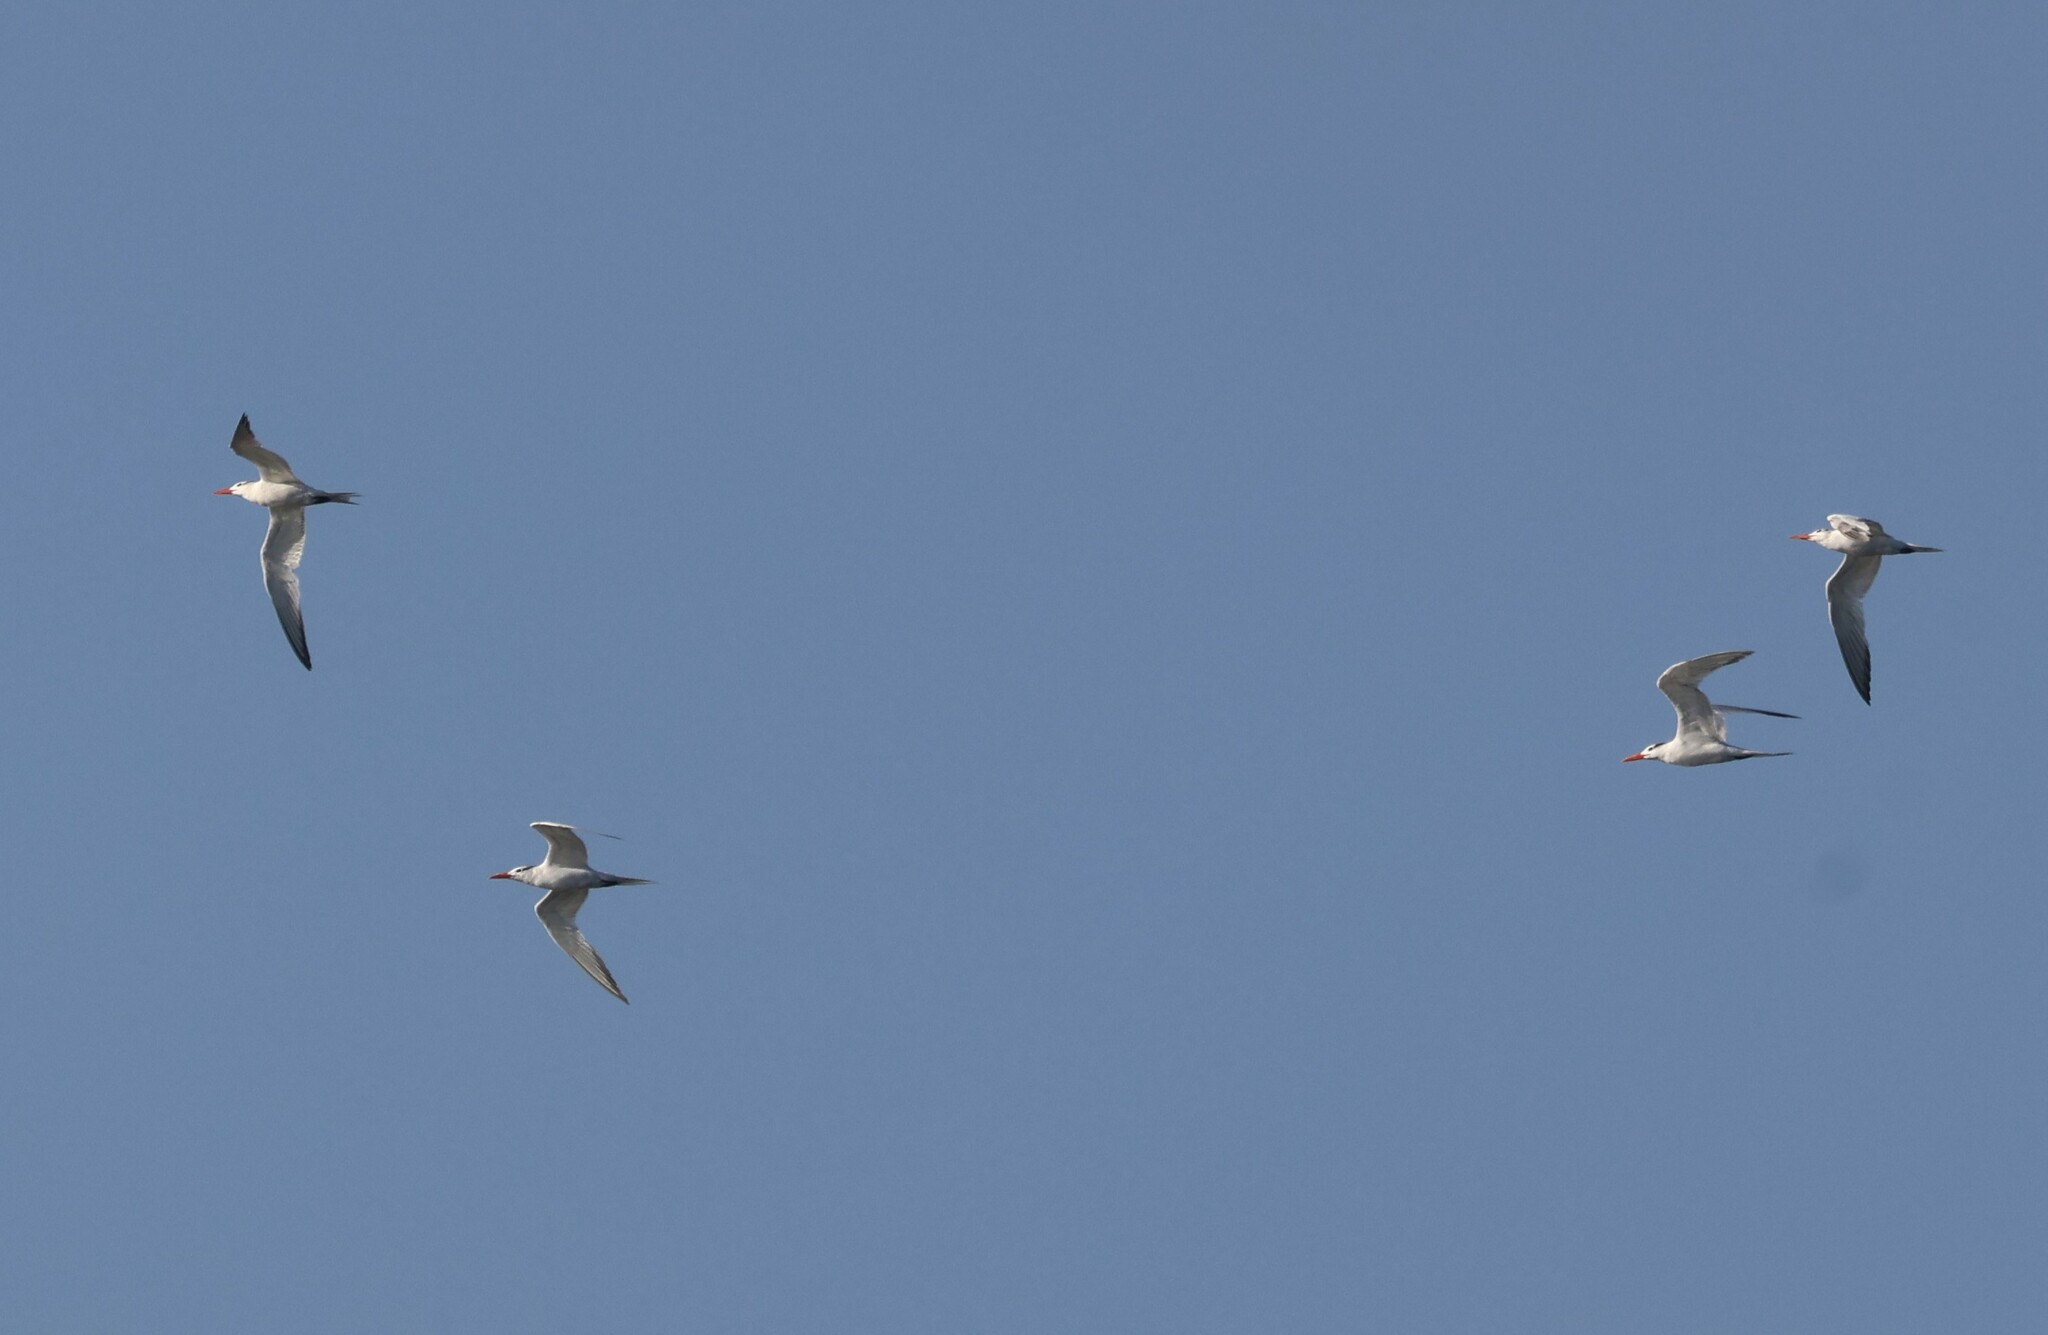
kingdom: Animalia
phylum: Chordata
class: Aves
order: Charadriiformes
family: Laridae
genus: Thalasseus
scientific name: Thalasseus maximus
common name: Royal tern
